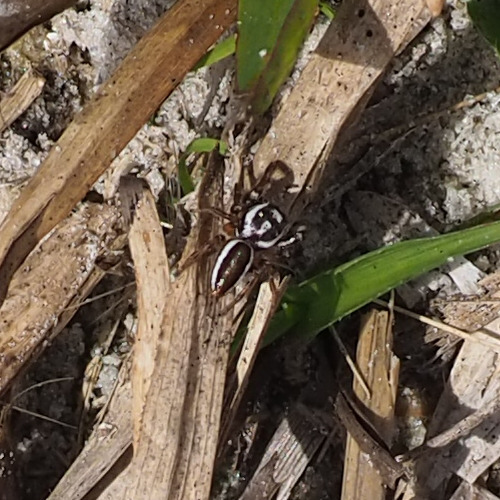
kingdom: Animalia
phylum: Arthropoda
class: Arachnida
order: Araneae
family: Salticidae
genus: Eris
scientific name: Eris flava
